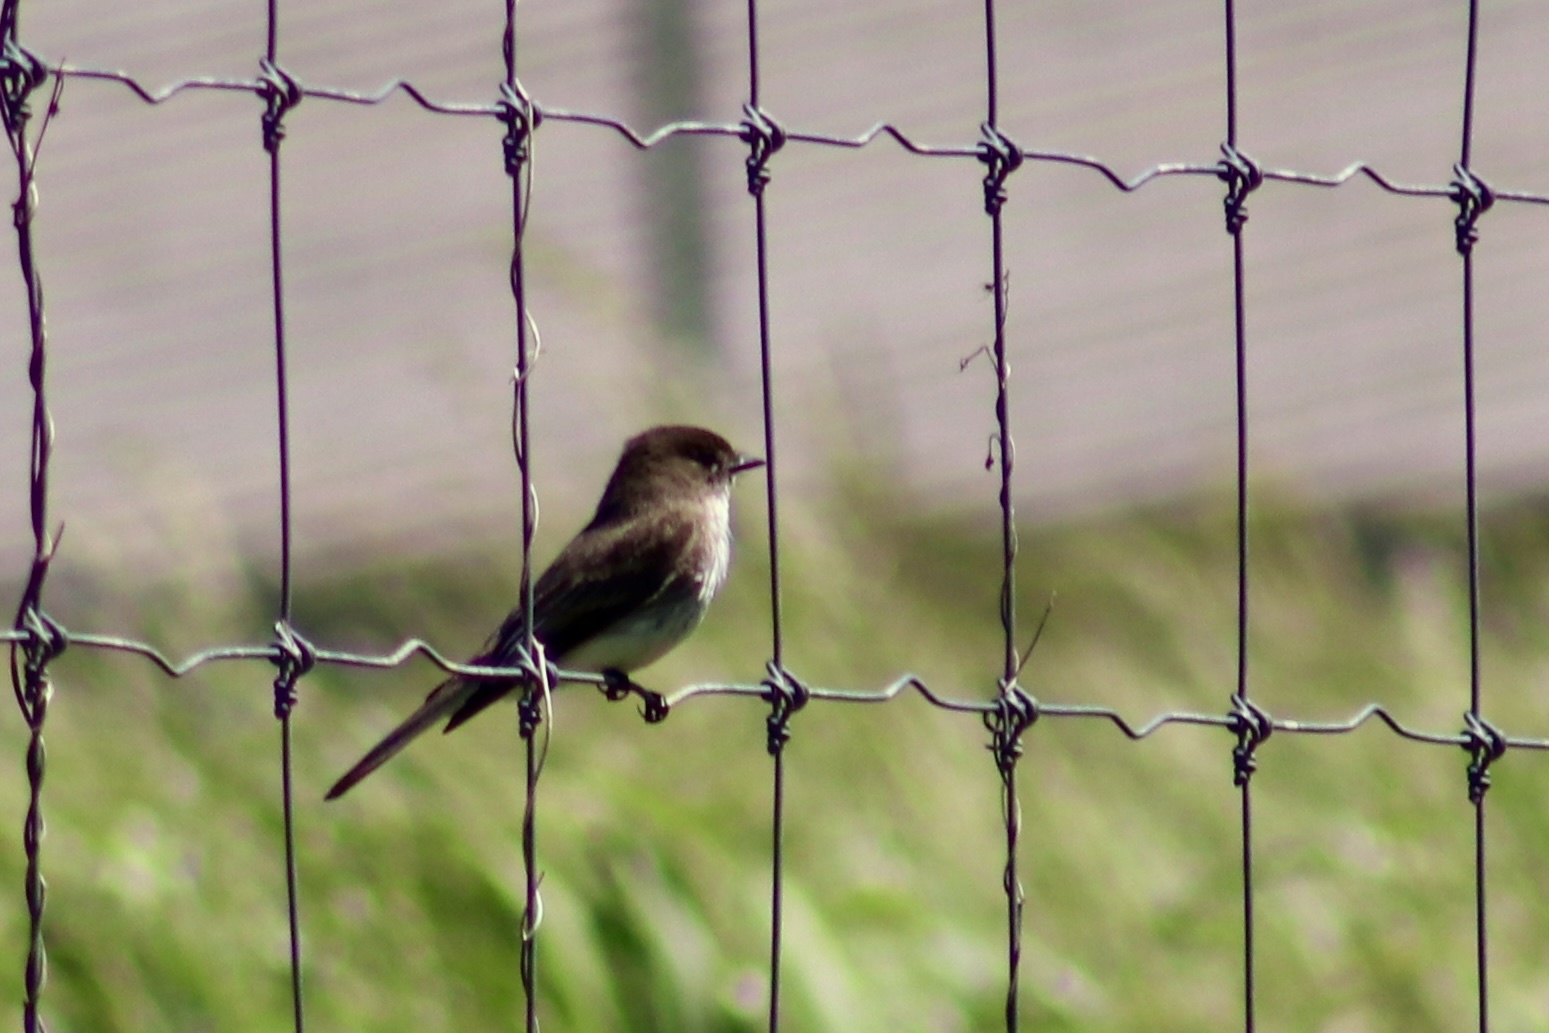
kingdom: Animalia
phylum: Chordata
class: Aves
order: Passeriformes
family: Tyrannidae
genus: Sayornis
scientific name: Sayornis phoebe
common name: Eastern phoebe
